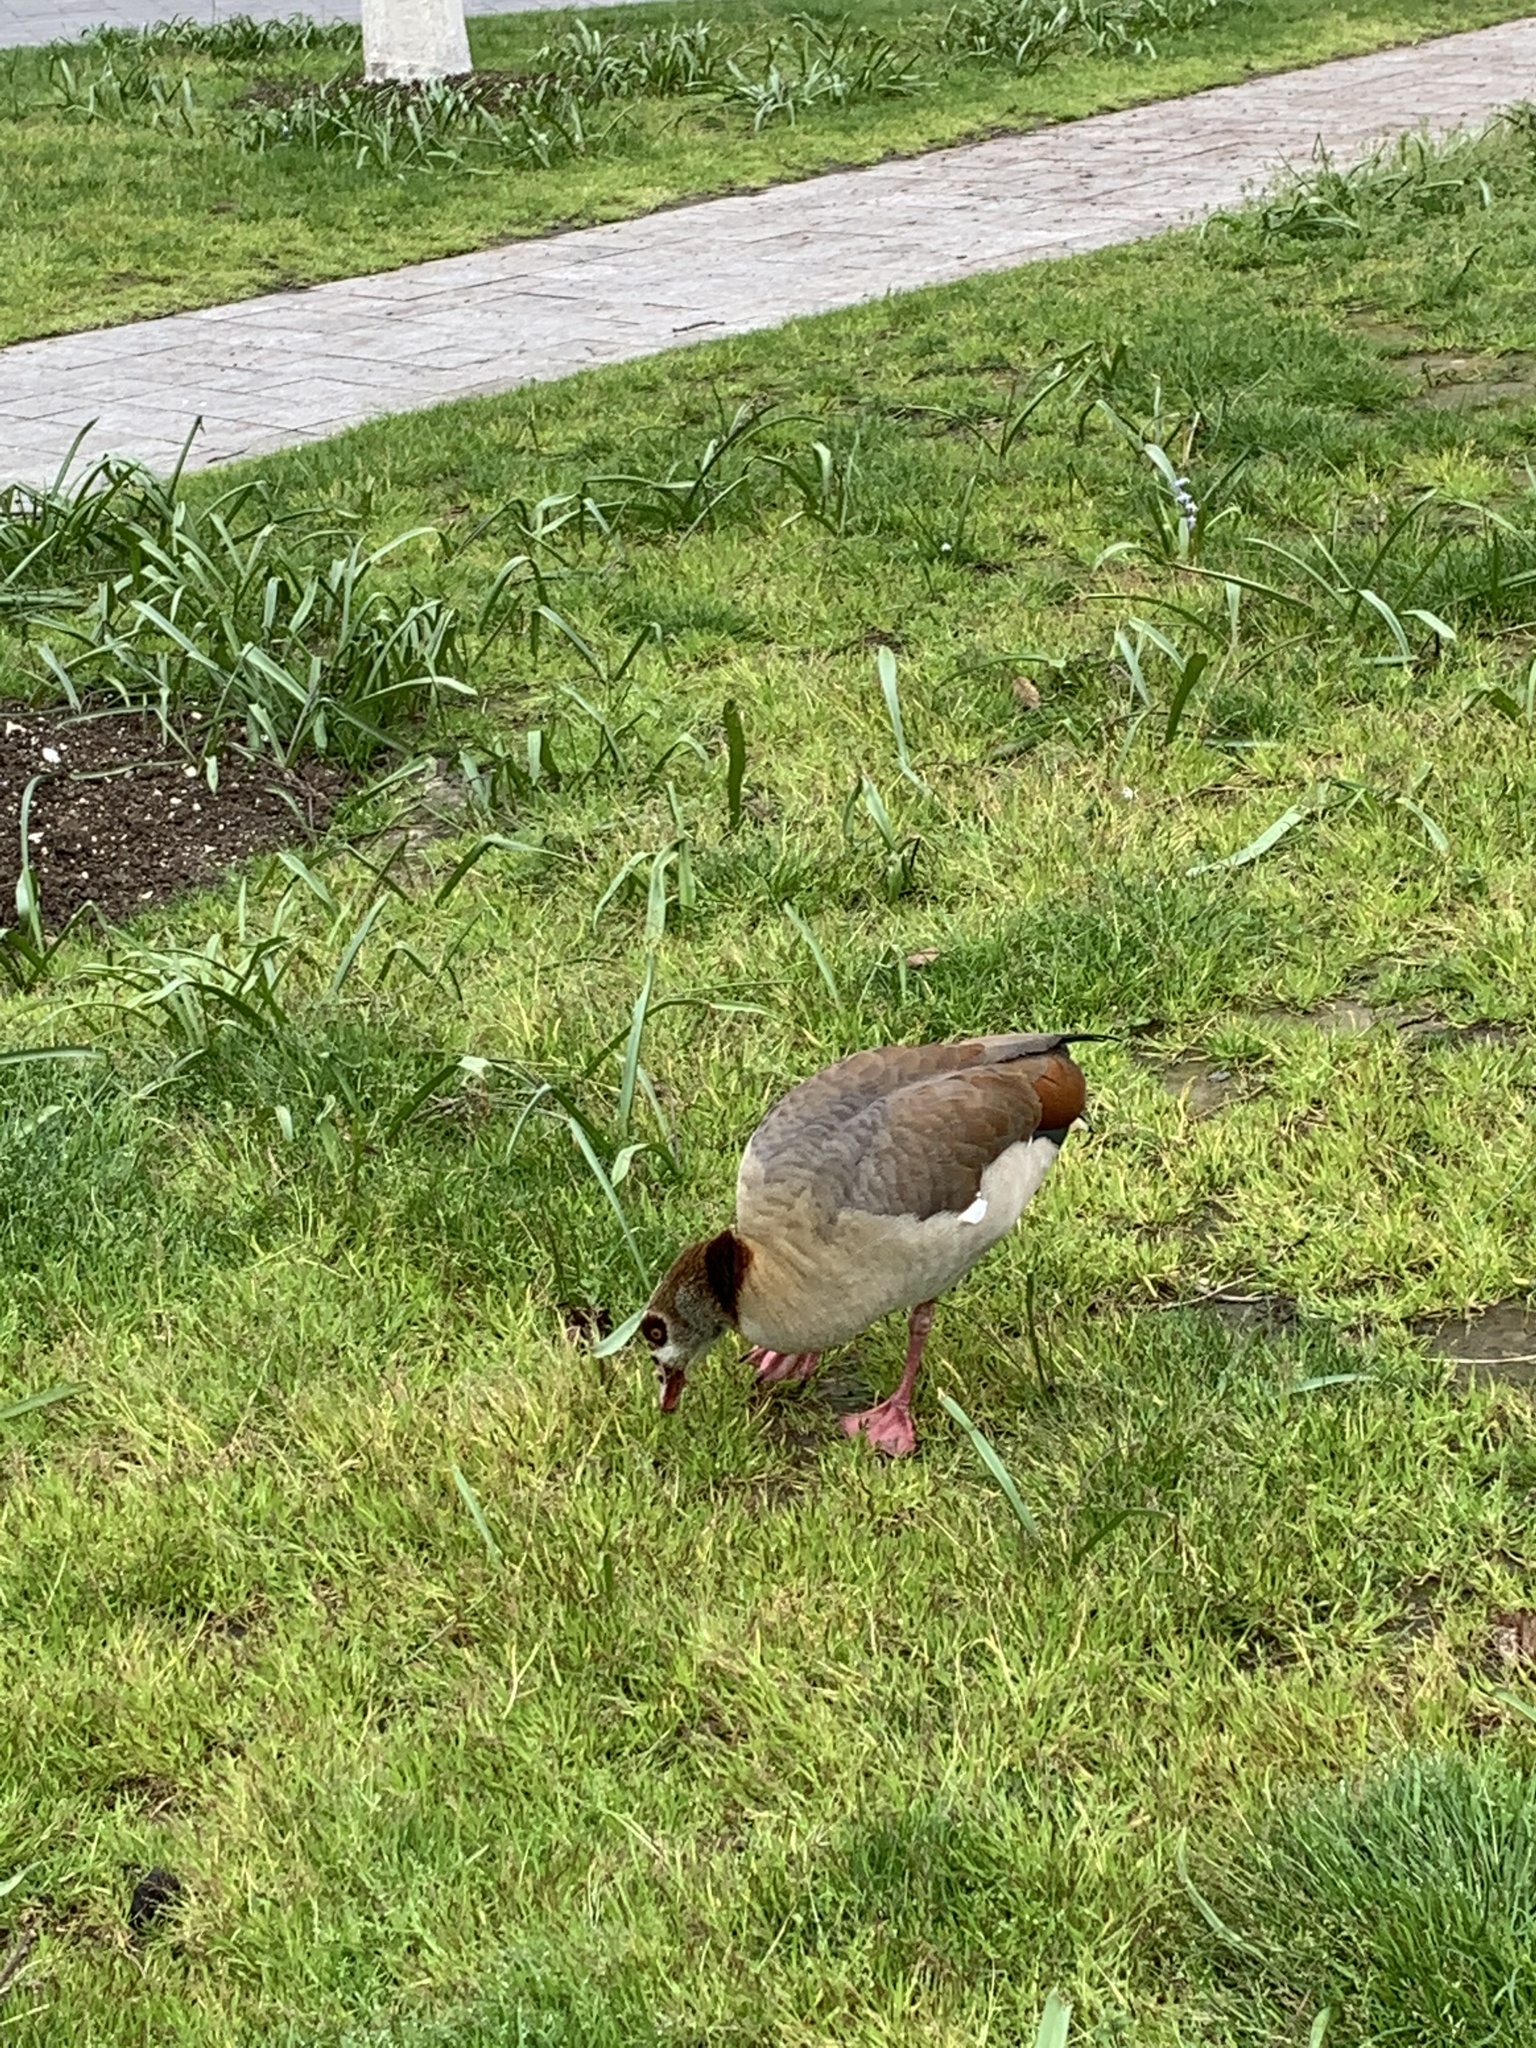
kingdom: Animalia
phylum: Chordata
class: Aves
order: Anseriformes
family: Anatidae
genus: Alopochen
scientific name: Alopochen aegyptiaca
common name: Egyptian goose
